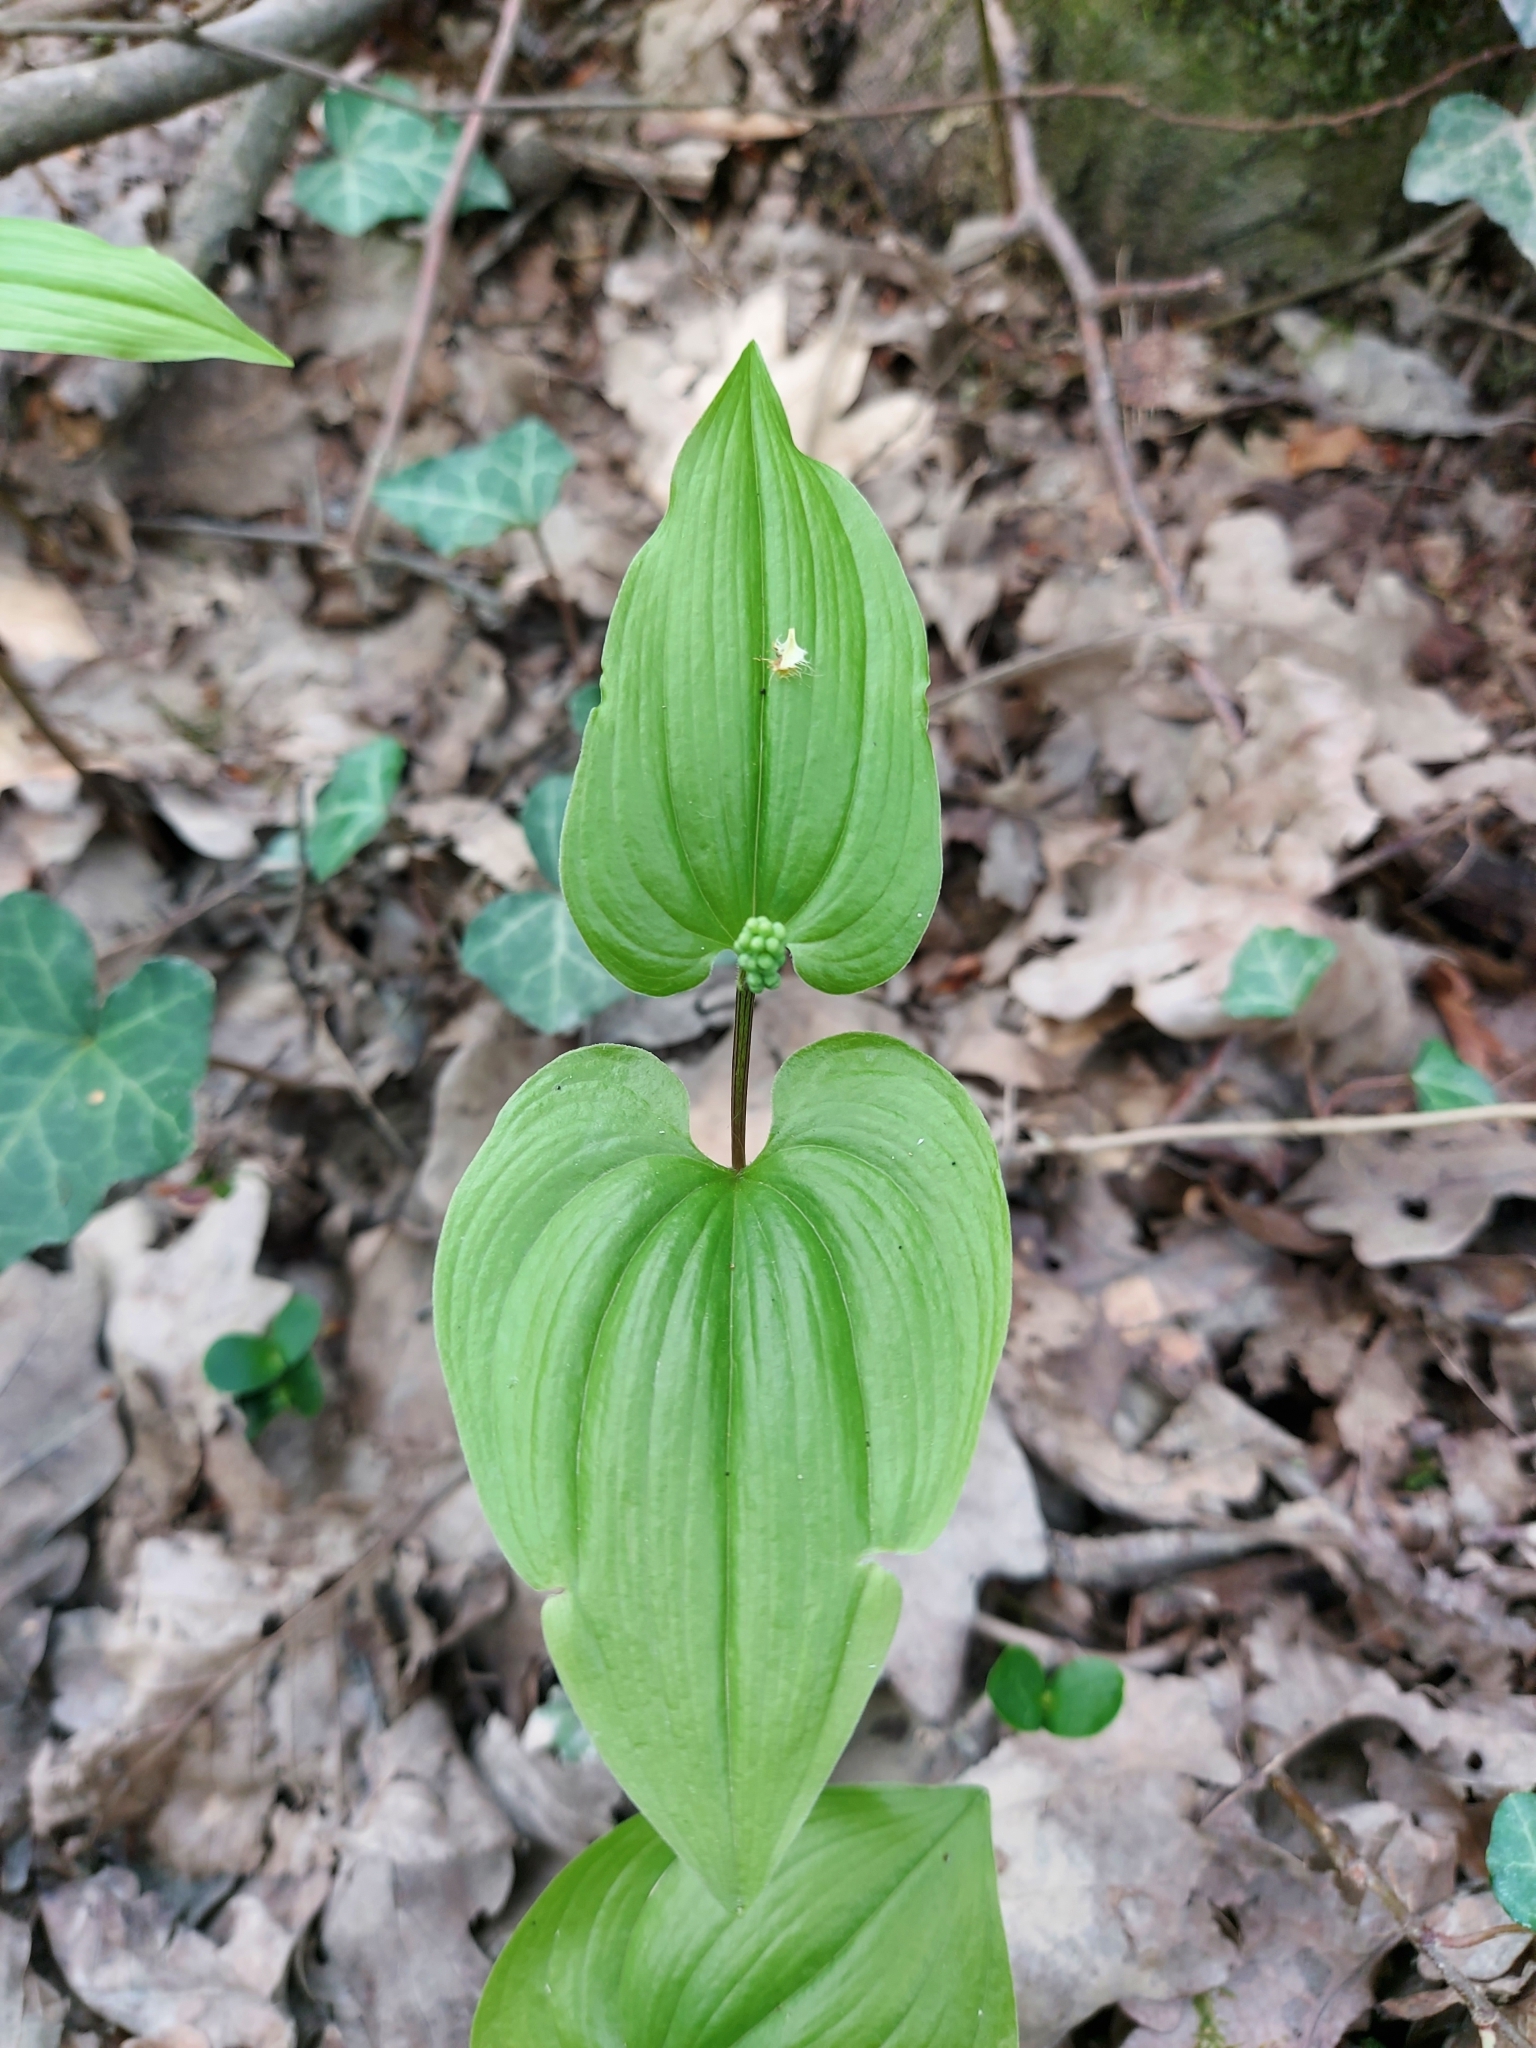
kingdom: Plantae
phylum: Tracheophyta
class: Liliopsida
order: Asparagales
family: Asparagaceae
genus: Maianthemum
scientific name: Maianthemum bifolium
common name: May lily
